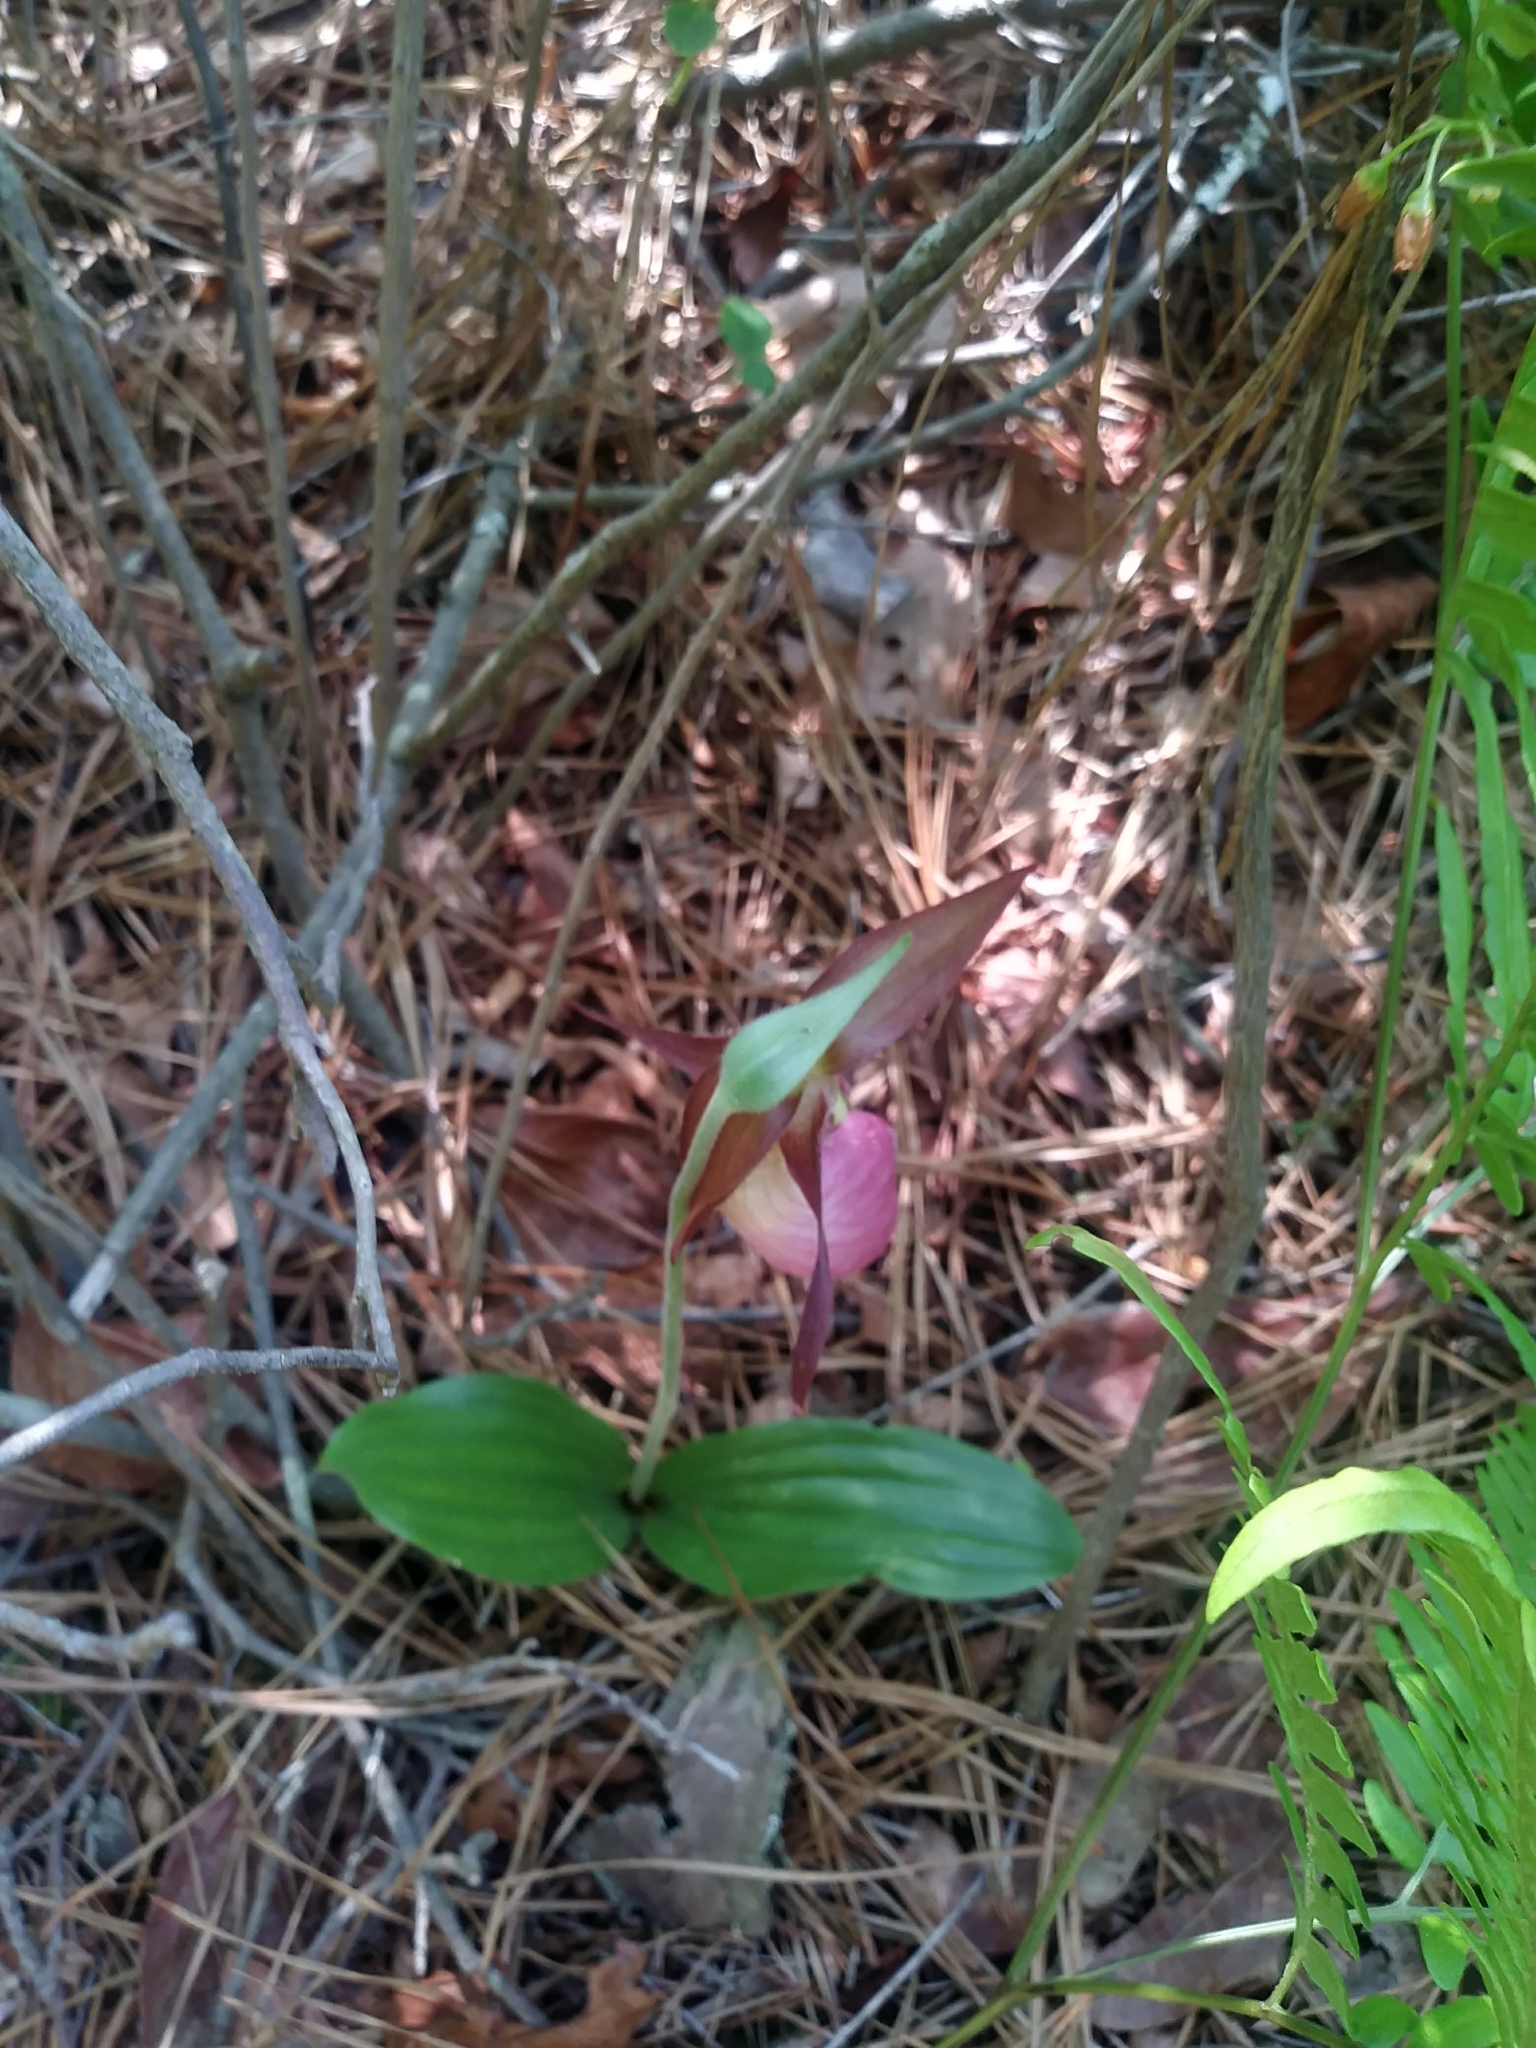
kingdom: Plantae
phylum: Tracheophyta
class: Liliopsida
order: Asparagales
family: Orchidaceae
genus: Cypripedium
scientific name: Cypripedium acaule
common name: Pink lady's-slipper
